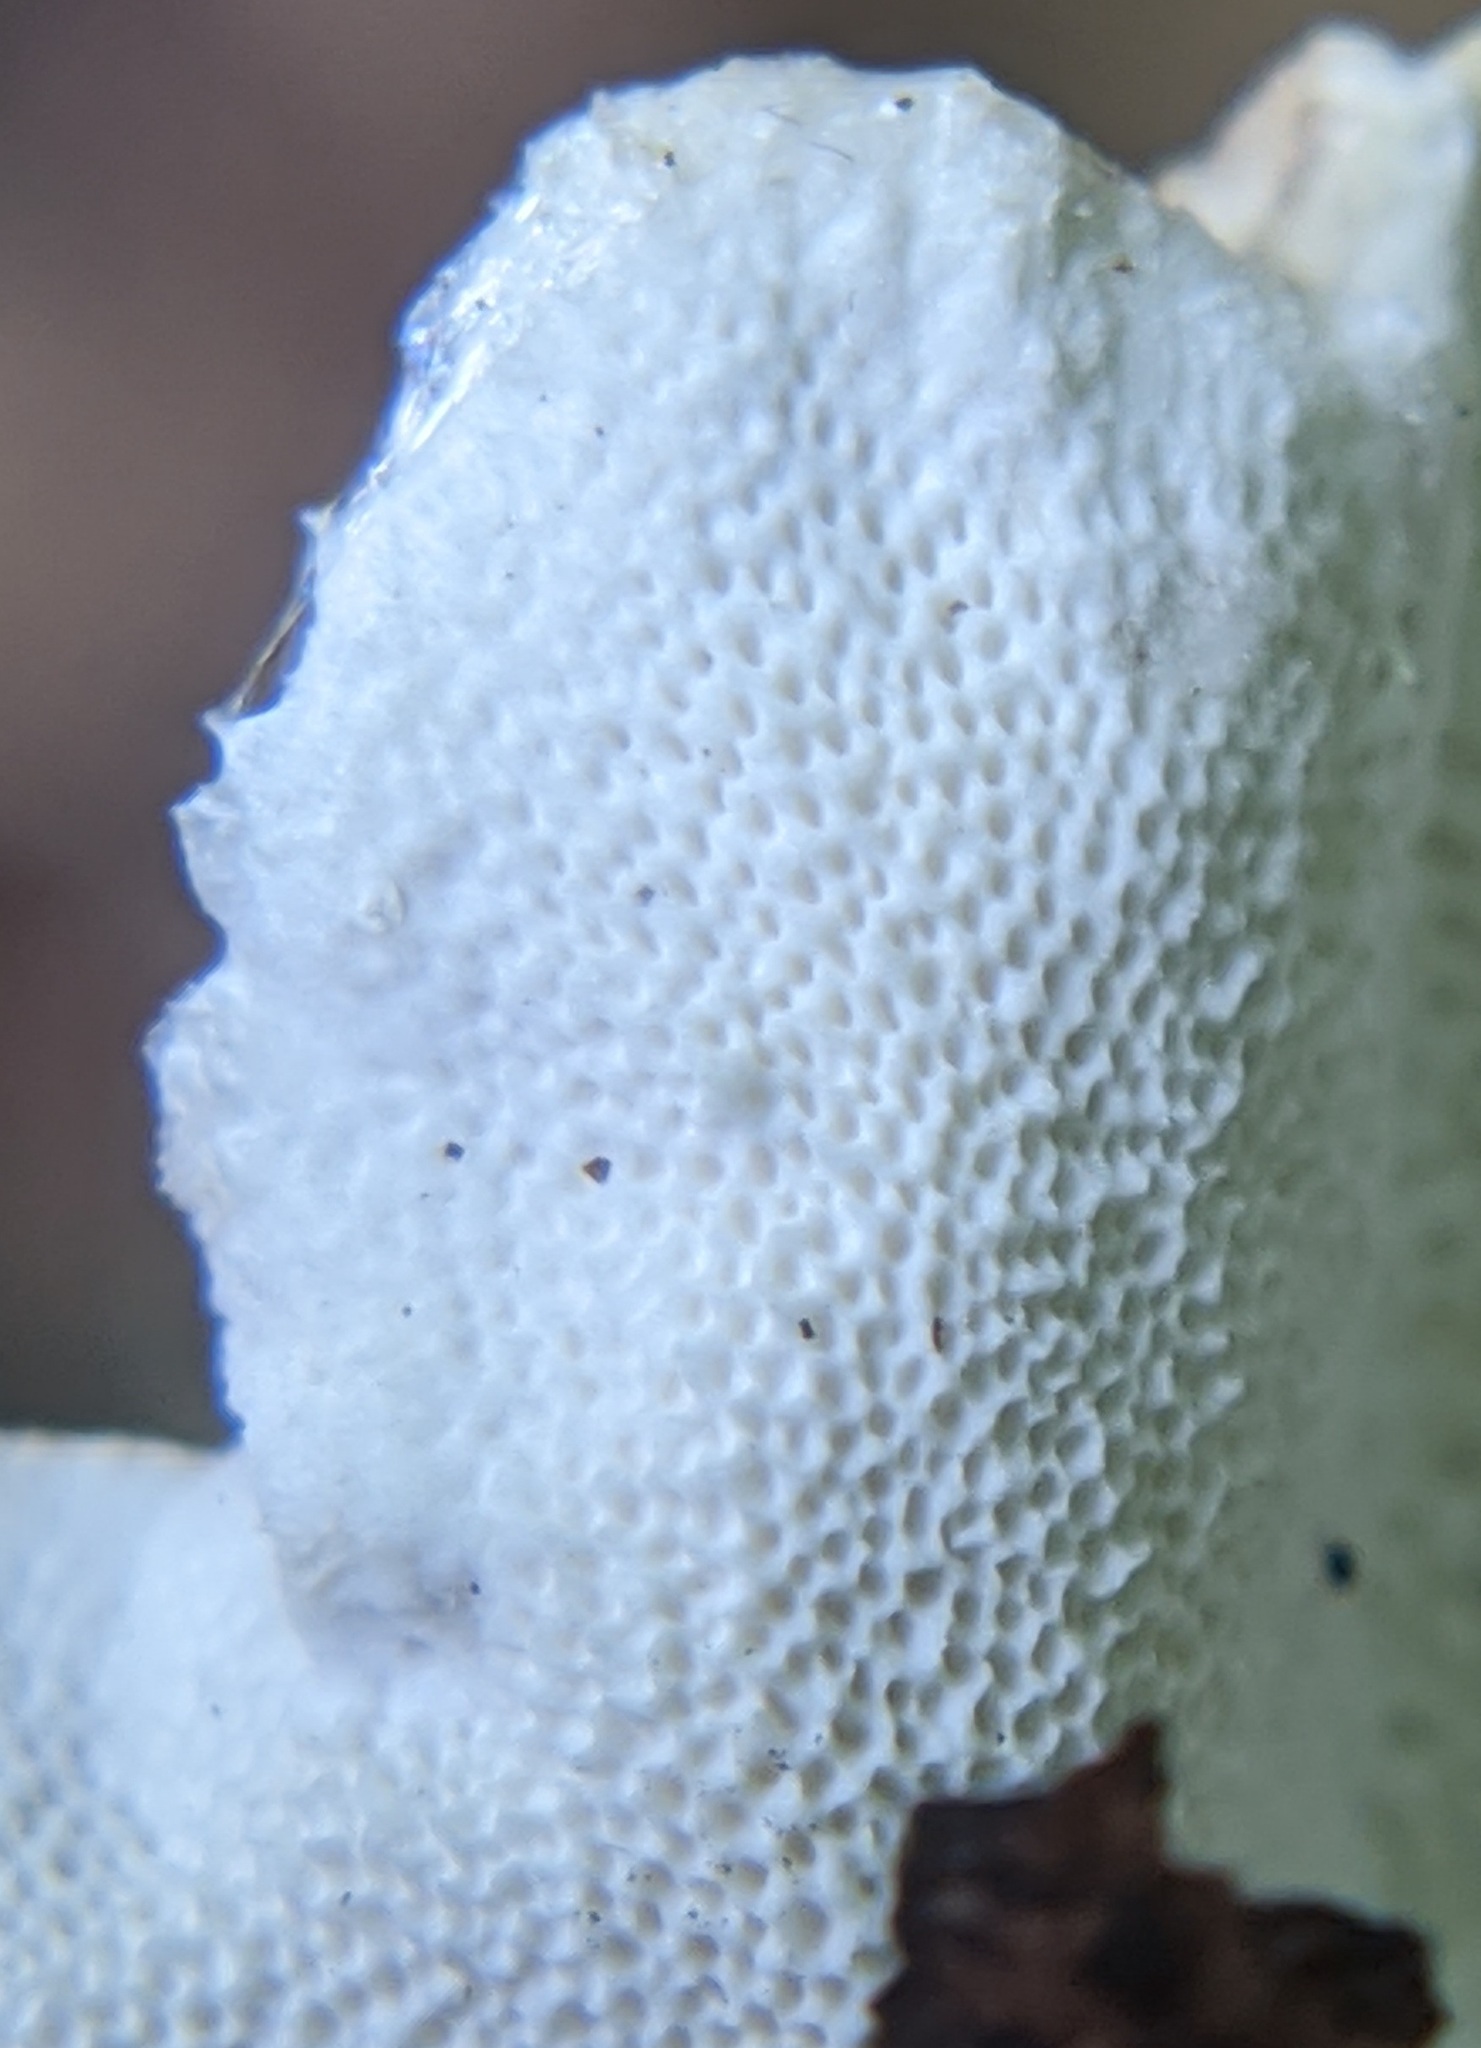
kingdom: Fungi
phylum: Basidiomycota
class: Agaricomycetes
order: Polyporales
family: Polyporaceae
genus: Trametes
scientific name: Trametes versicolor
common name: Turkeytail
